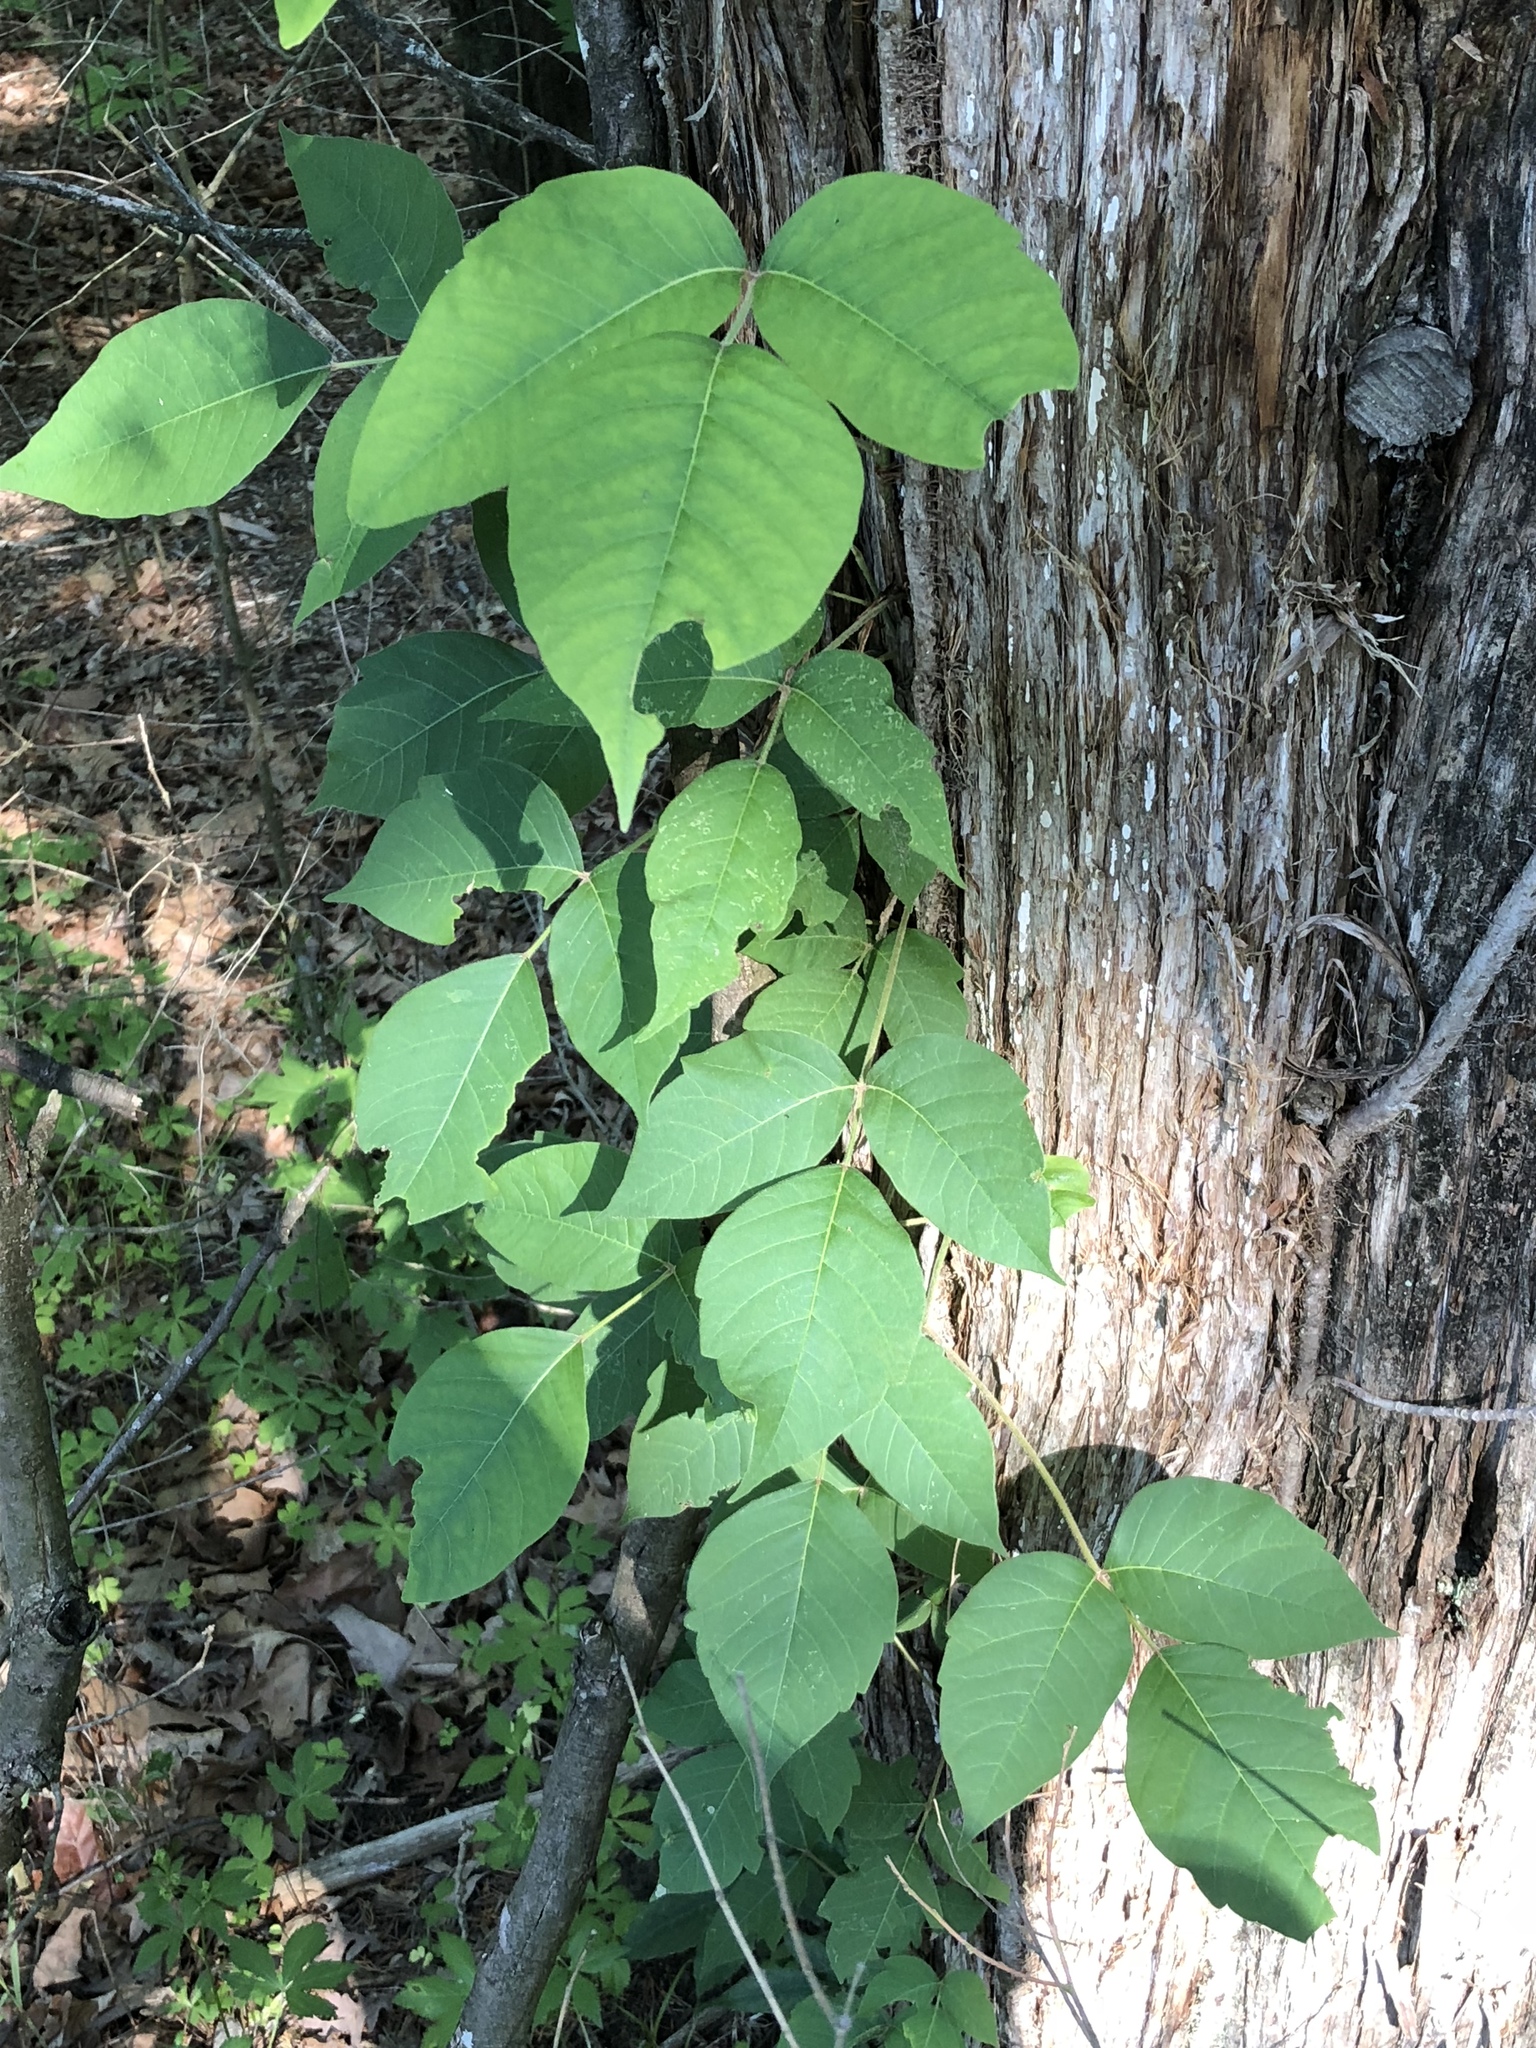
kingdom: Plantae
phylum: Tracheophyta
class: Magnoliopsida
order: Sapindales
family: Anacardiaceae
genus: Toxicodendron
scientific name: Toxicodendron radicans
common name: Poison ivy
